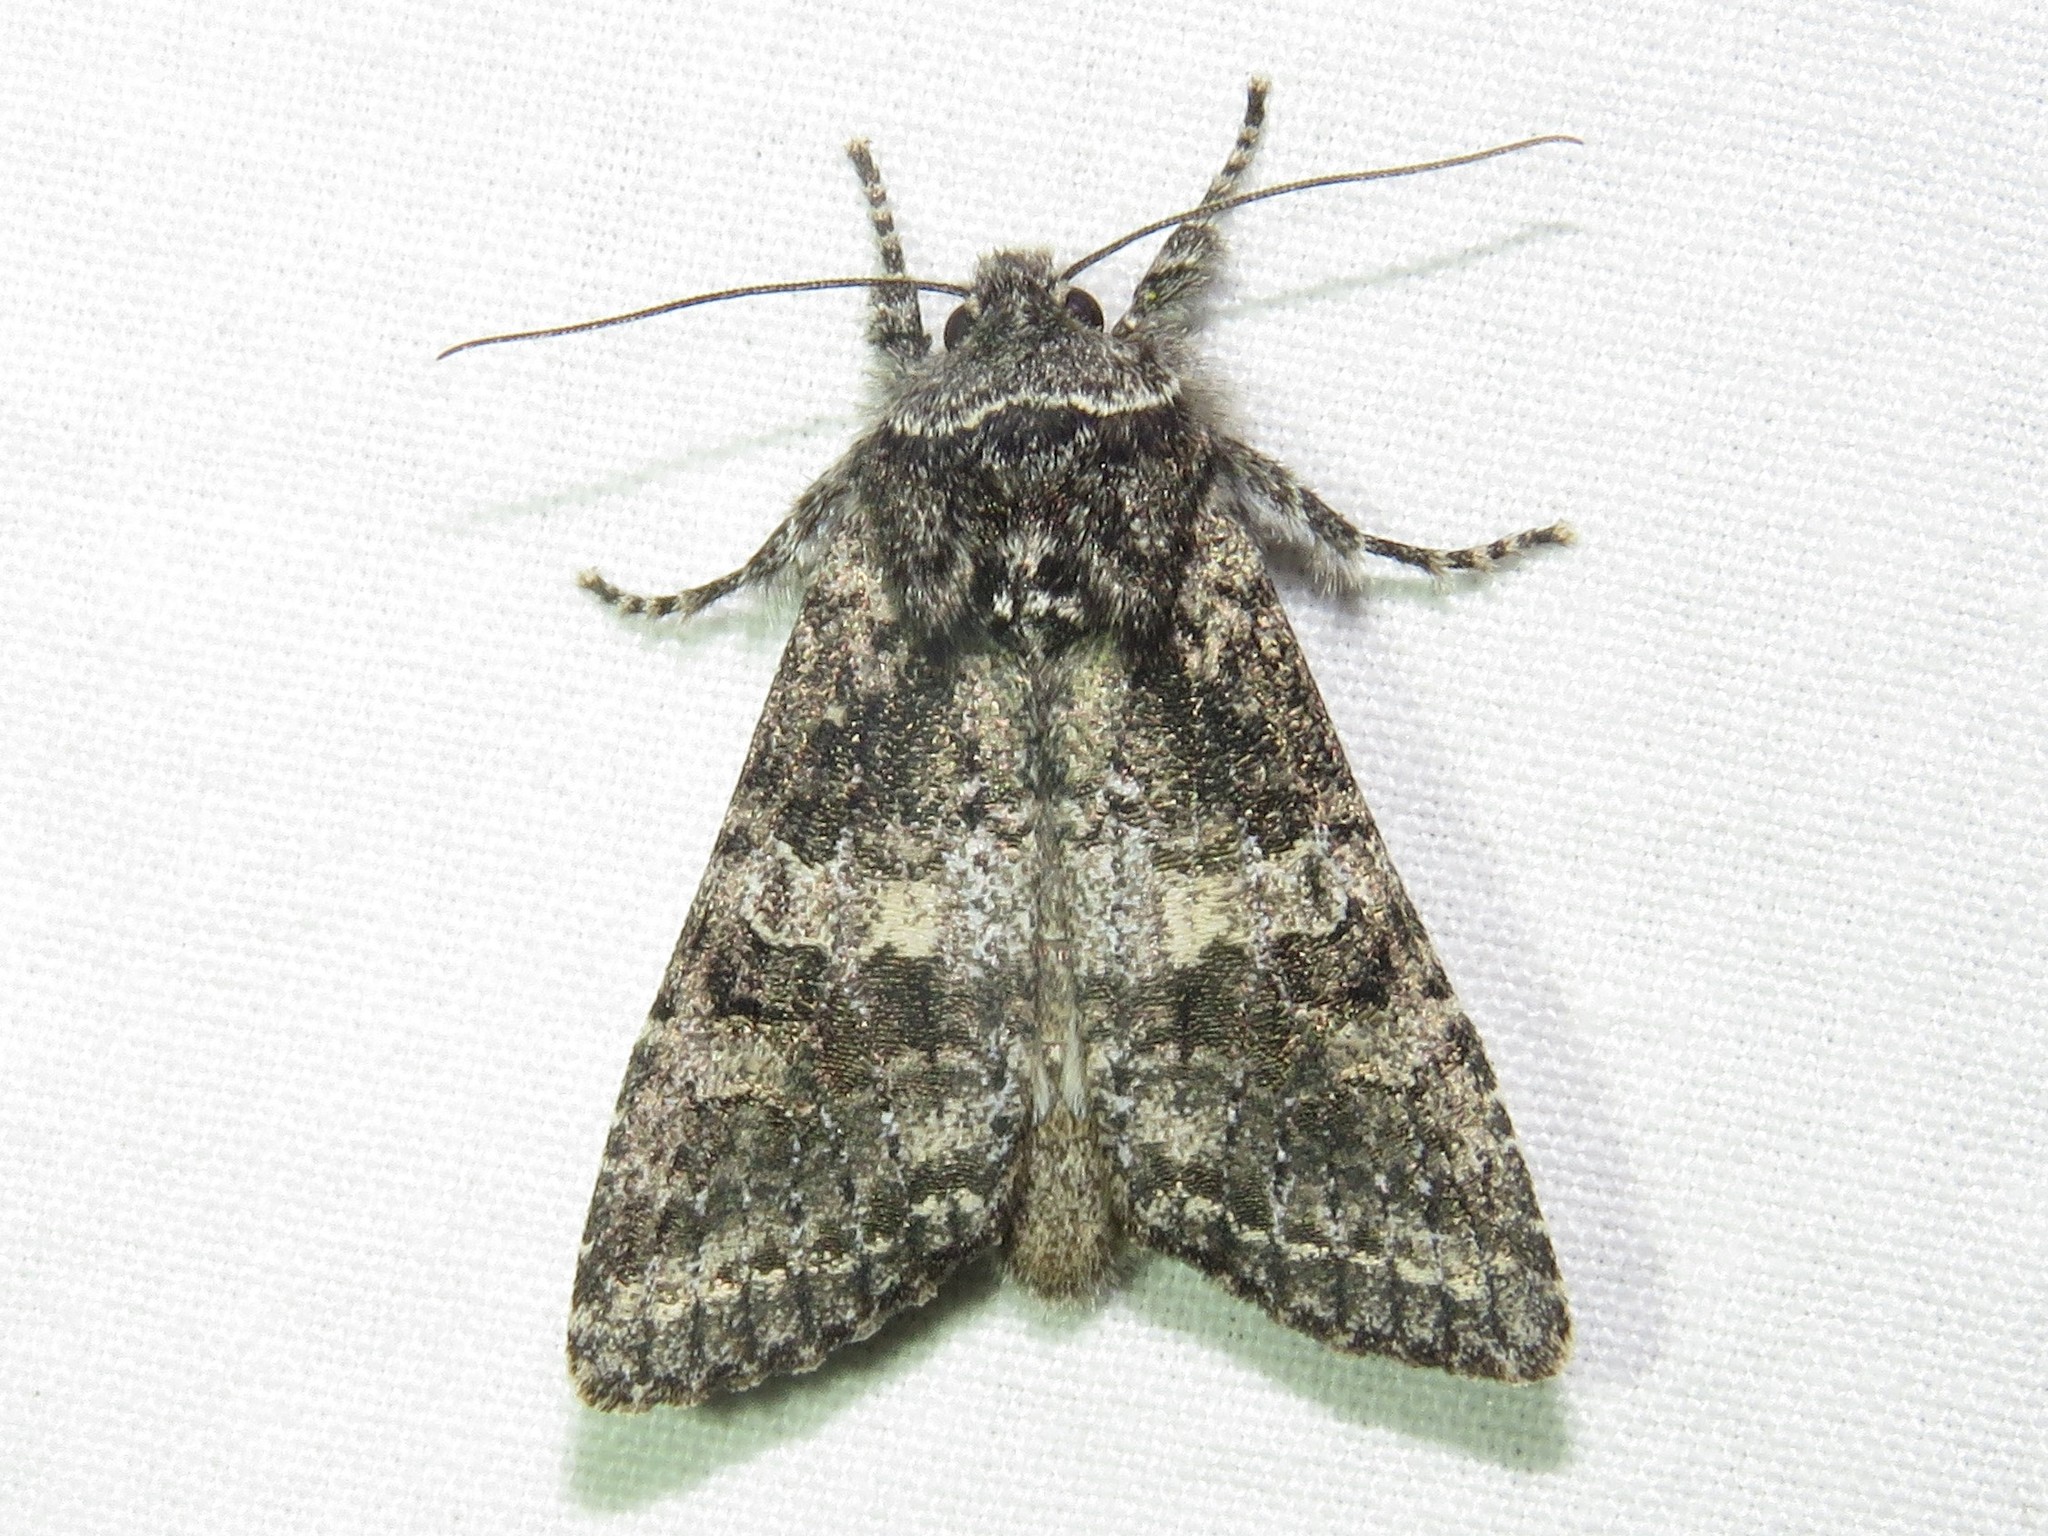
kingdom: Animalia
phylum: Arthropoda
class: Insecta
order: Lepidoptera
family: Noctuidae
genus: Egira
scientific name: Egira dolosa
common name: Lined black aspen cat.
